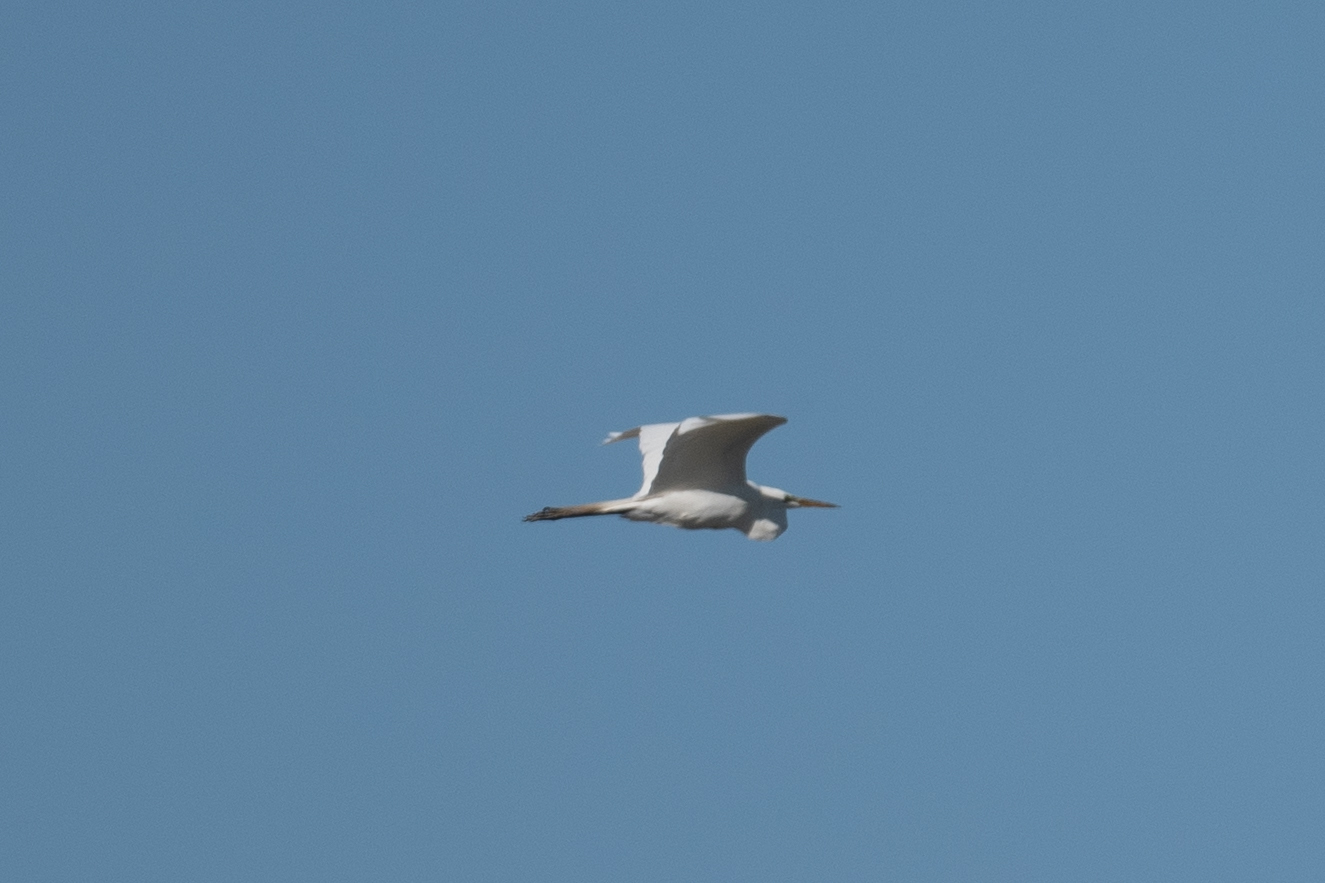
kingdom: Animalia
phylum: Chordata
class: Aves
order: Pelecaniformes
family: Ardeidae
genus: Ardea
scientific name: Ardea alba
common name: Great egret
